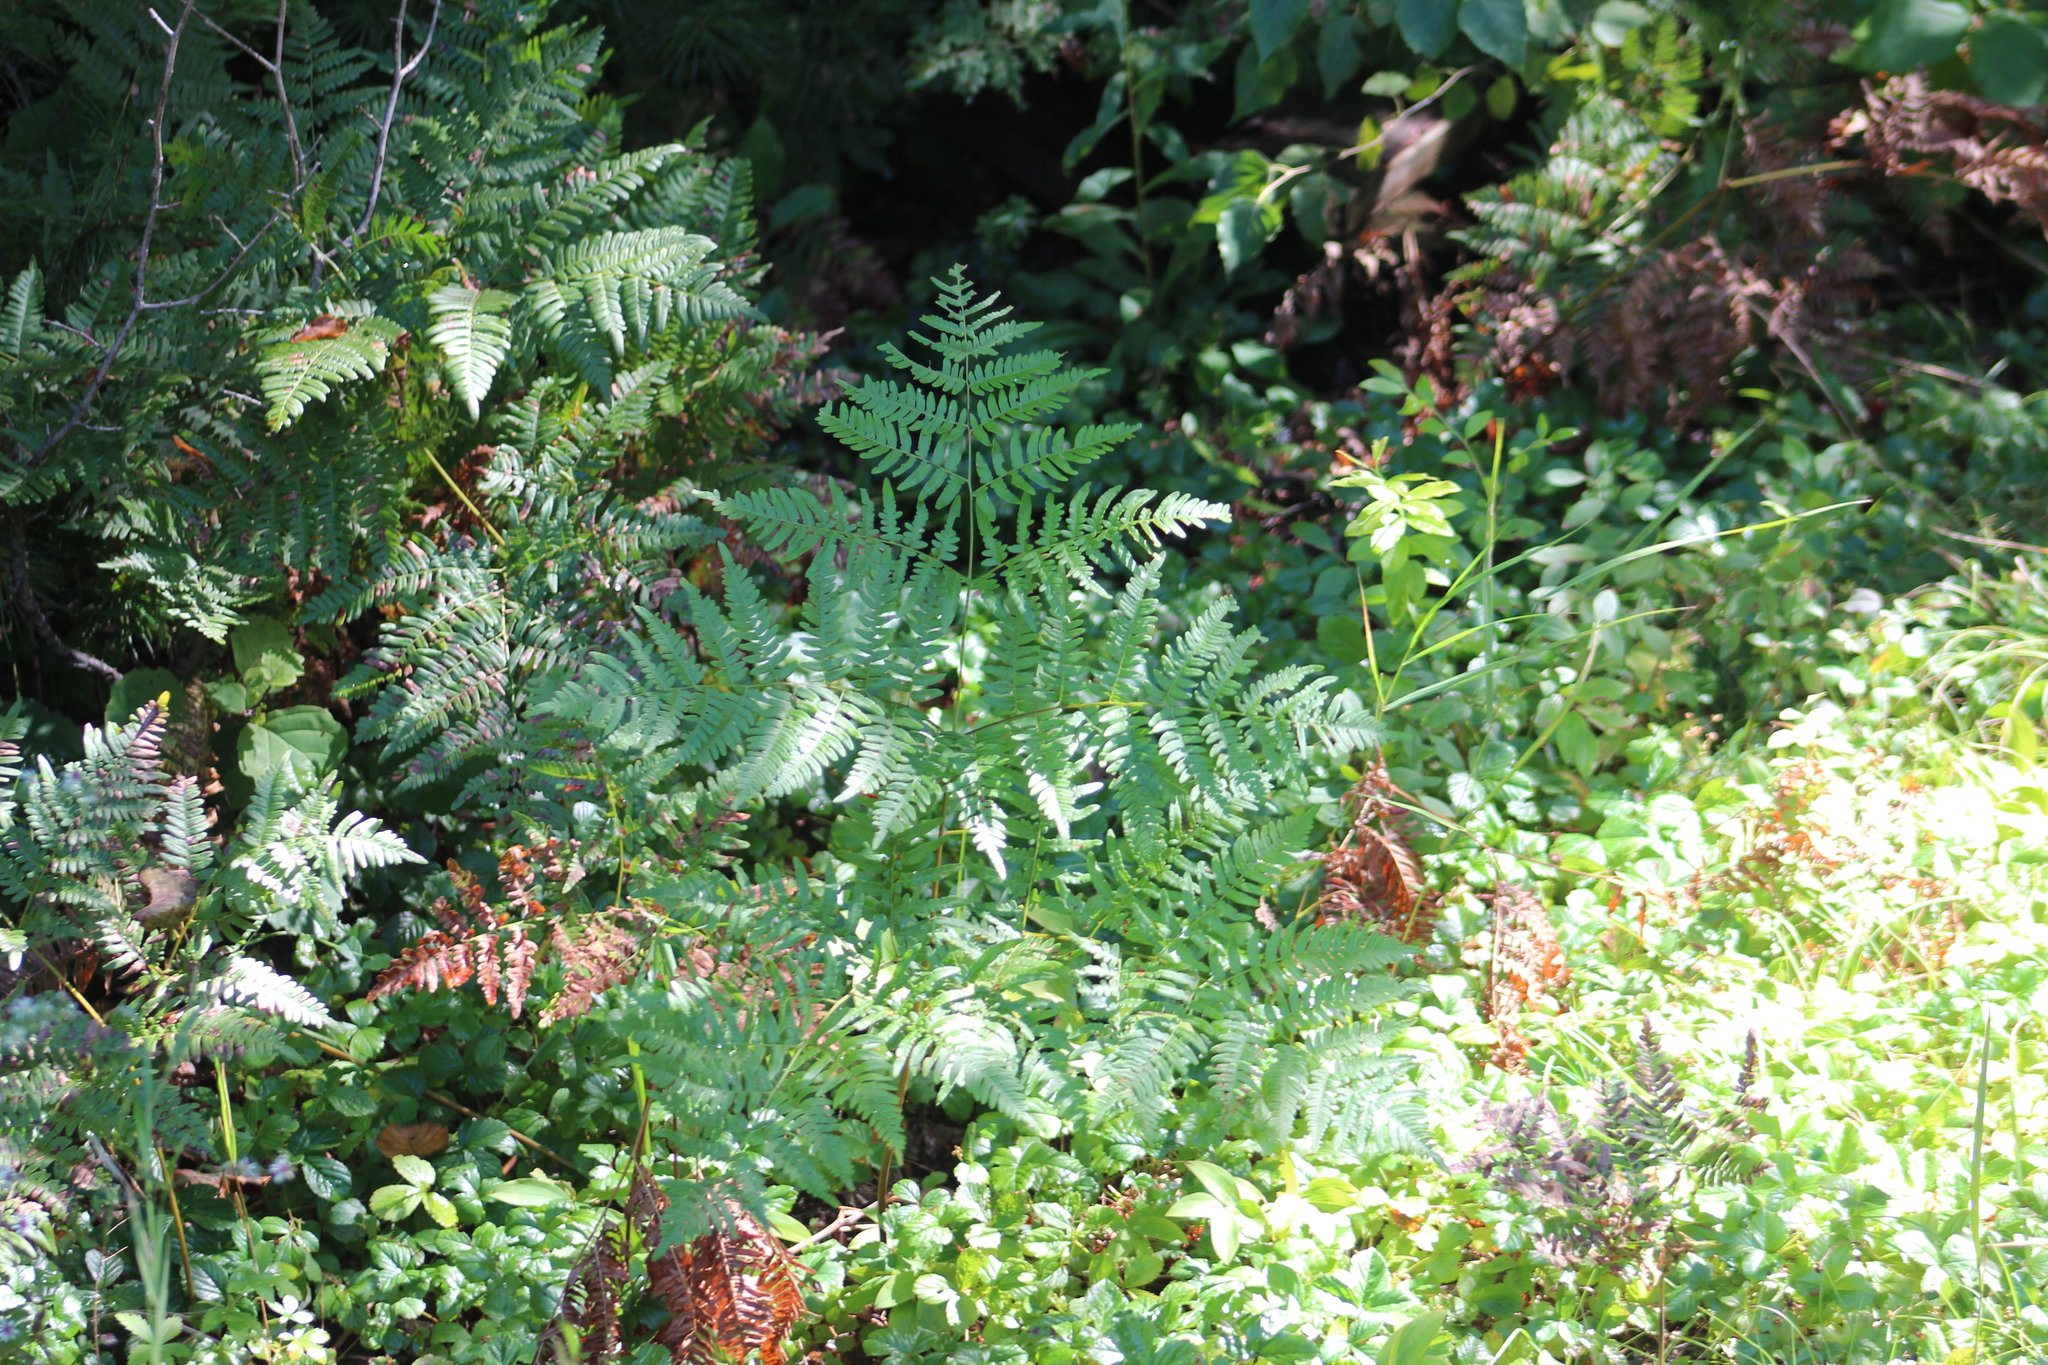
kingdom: Plantae
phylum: Tracheophyta
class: Polypodiopsida
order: Polypodiales
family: Dennstaedtiaceae
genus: Pteridium
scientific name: Pteridium aquilinum
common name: Bracken
